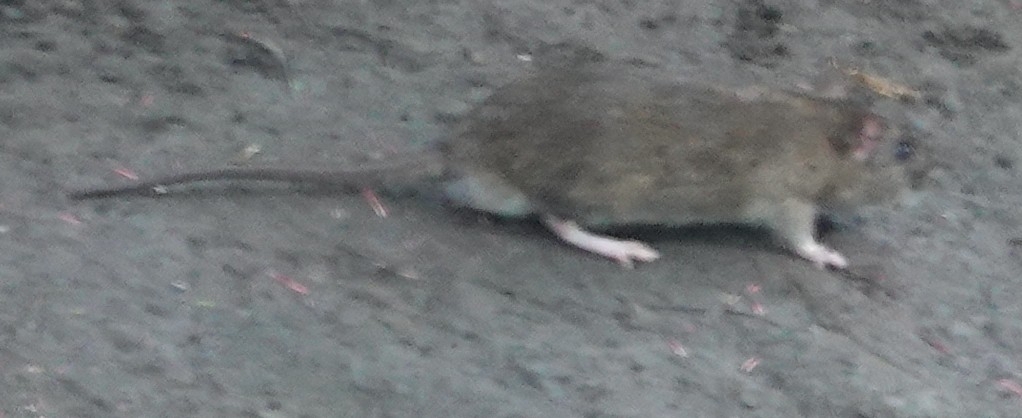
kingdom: Animalia
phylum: Chordata
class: Mammalia
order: Rodentia
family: Muridae
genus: Rattus
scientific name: Rattus norvegicus
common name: Brown rat
